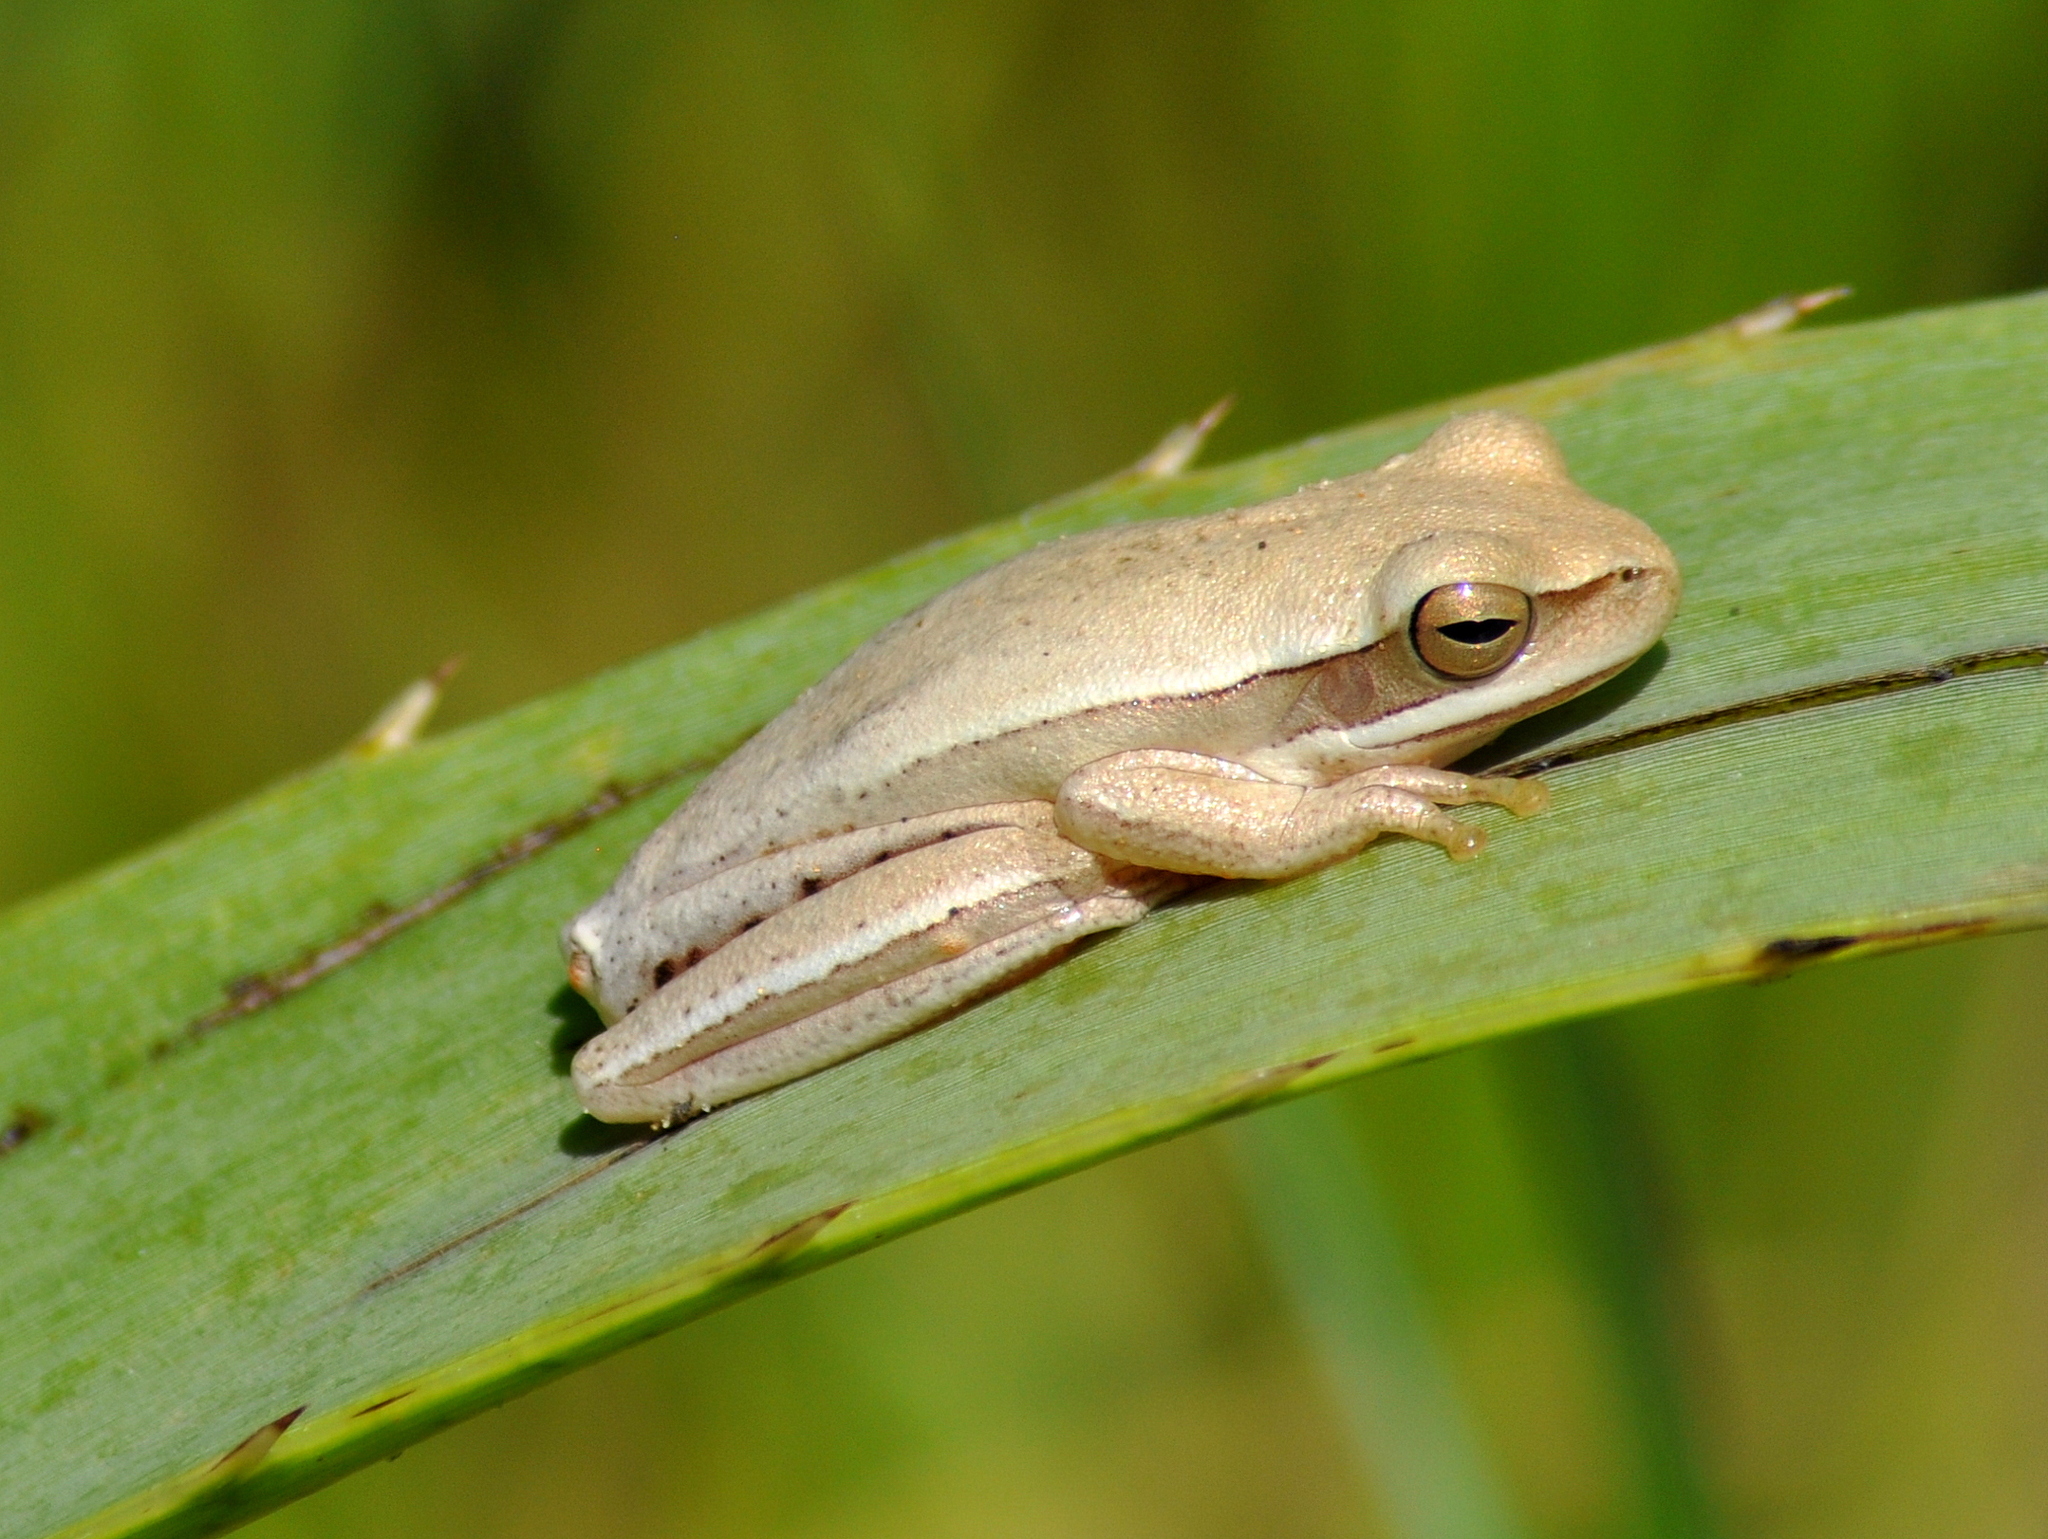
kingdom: Animalia
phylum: Chordata
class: Amphibia
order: Anura
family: Hylidae
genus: Boana
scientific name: Boana pulchella
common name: Montevideo treefrog
